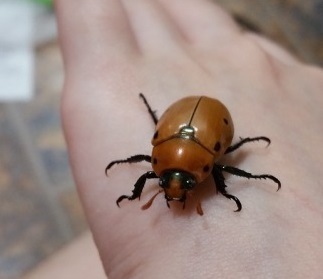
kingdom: Animalia
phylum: Arthropoda
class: Insecta
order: Coleoptera
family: Scarabaeidae
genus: Pelidnota
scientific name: Pelidnota punctata
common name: Grapevine beetle
